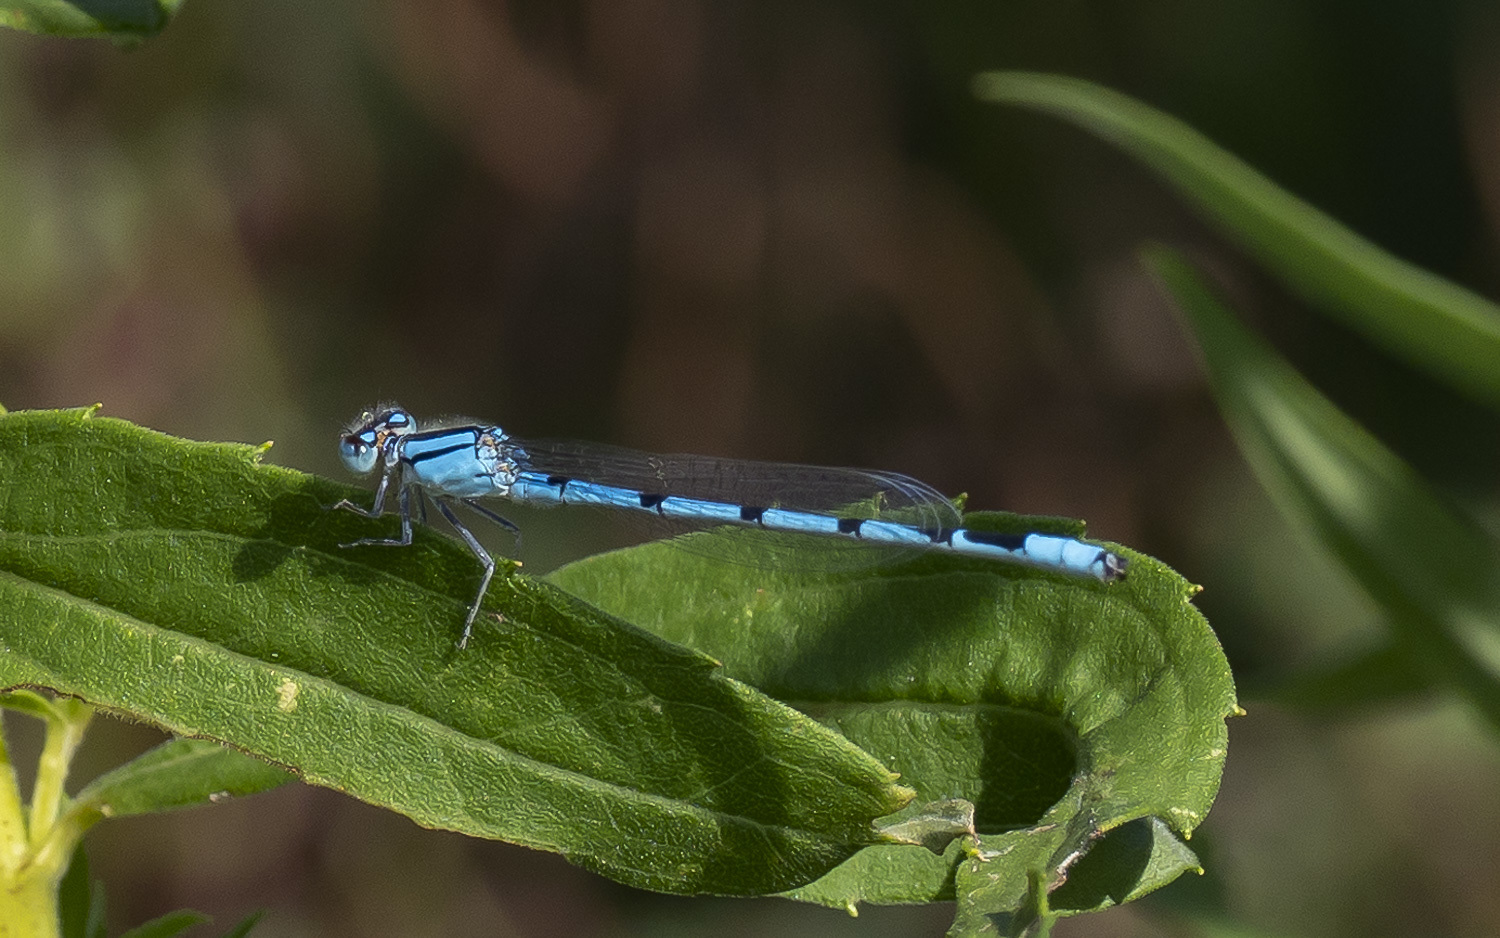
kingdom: Animalia
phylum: Arthropoda
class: Insecta
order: Odonata
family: Coenagrionidae
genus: Enallagma
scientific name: Enallagma civile
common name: Damselfly
